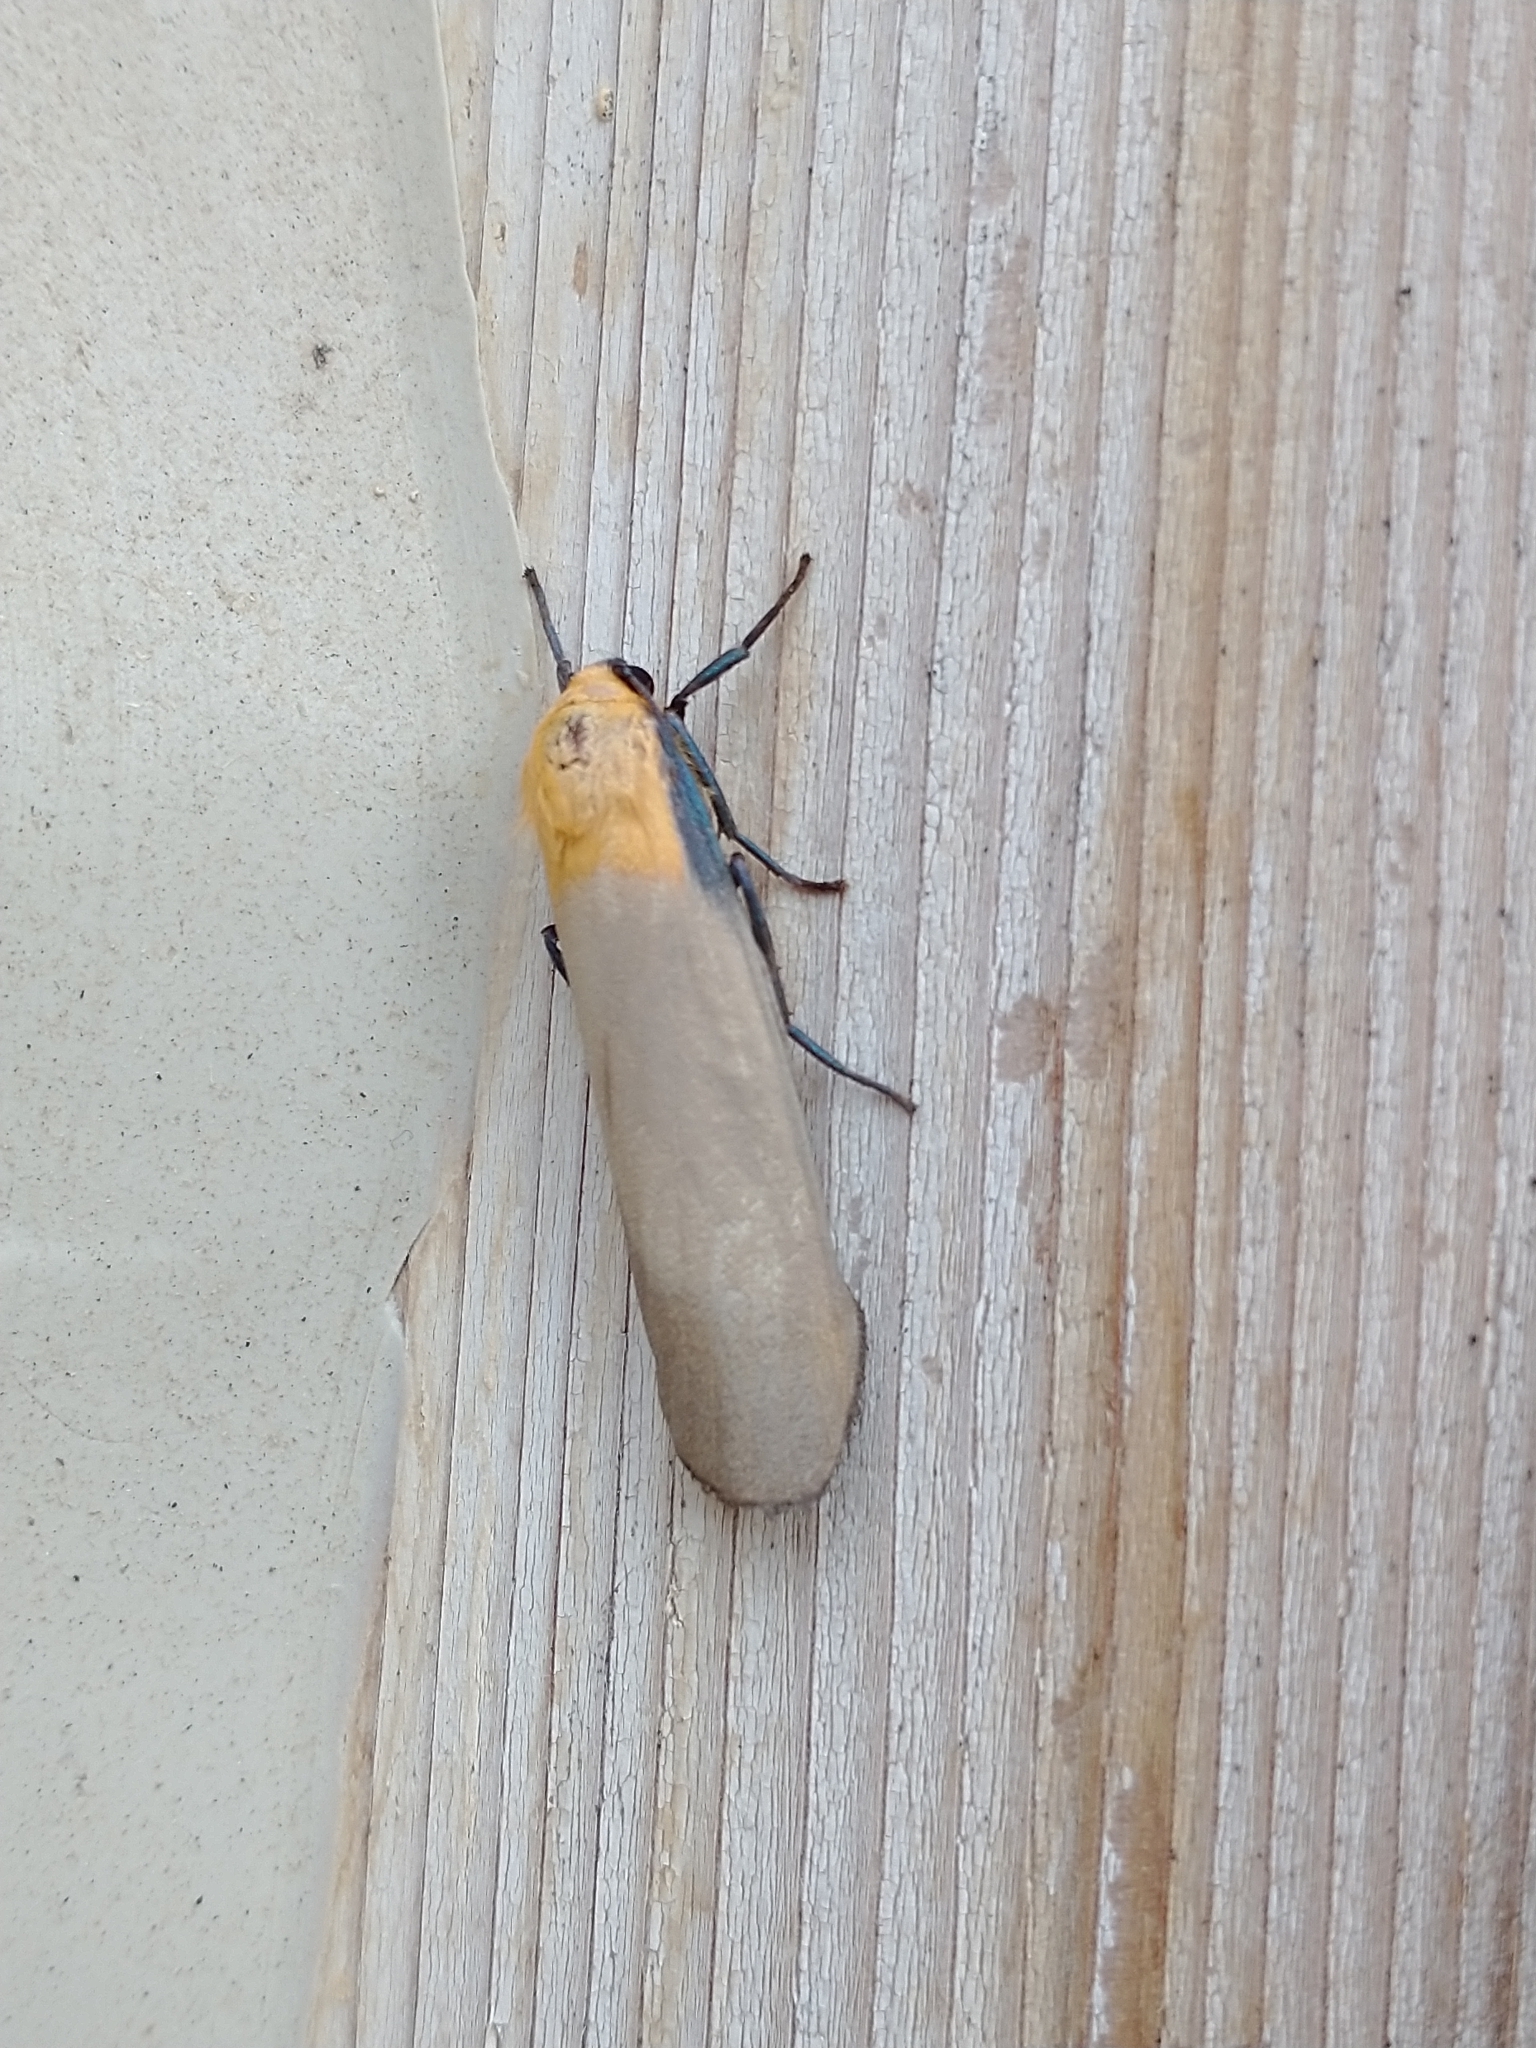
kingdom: Animalia
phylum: Arthropoda
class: Insecta
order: Lepidoptera
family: Erebidae
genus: Lithosia
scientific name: Lithosia quadra
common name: Four-spotted footman
